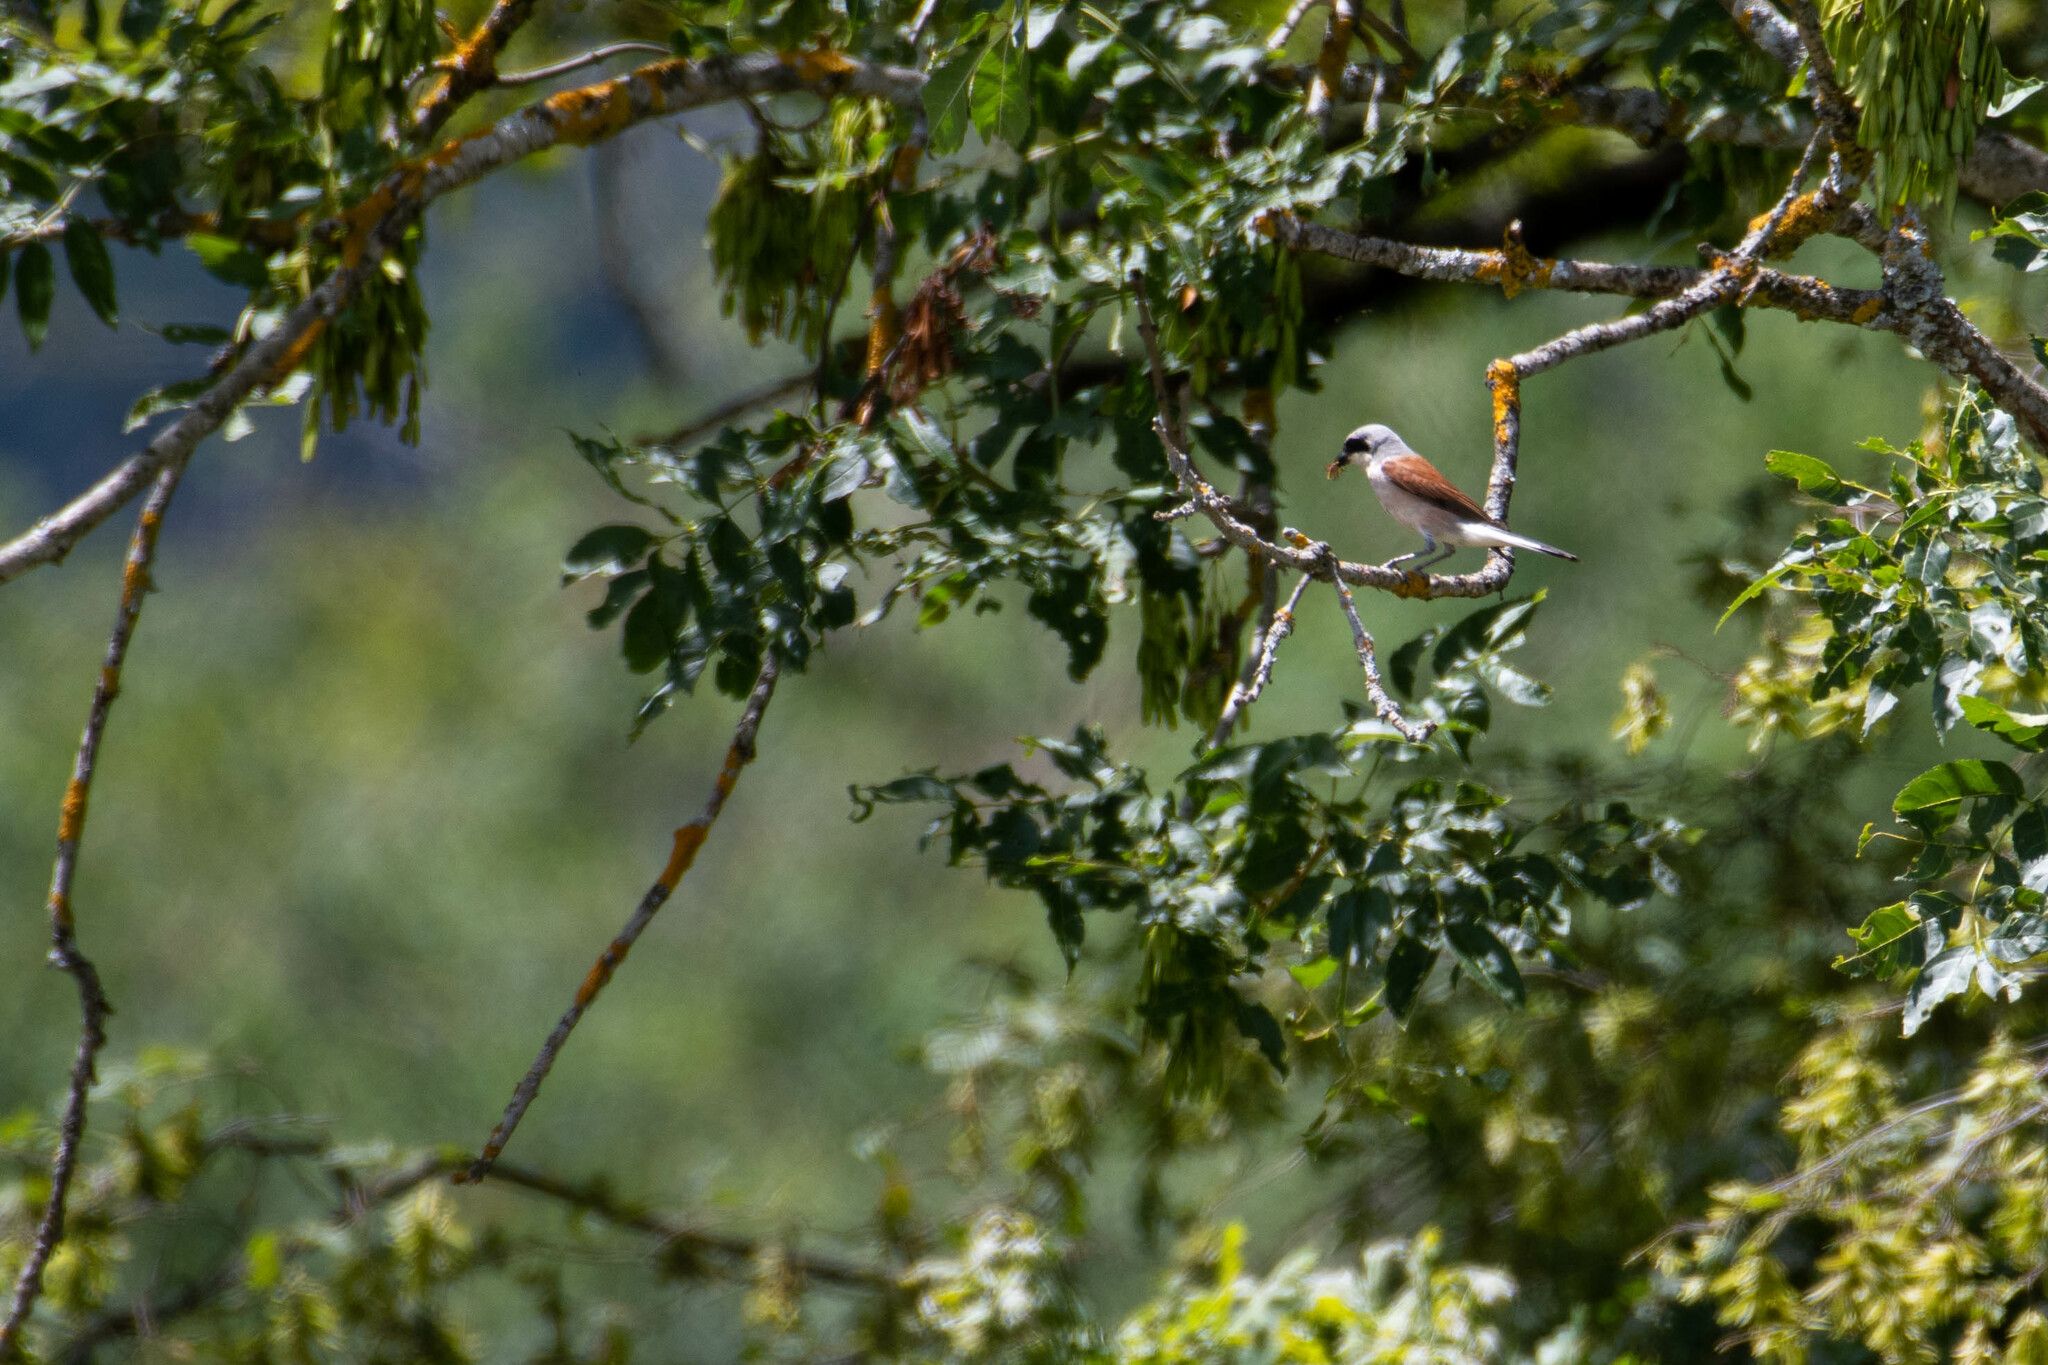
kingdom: Animalia
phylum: Chordata
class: Aves
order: Passeriformes
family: Laniidae
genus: Lanius
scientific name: Lanius collurio
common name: Red-backed shrike
